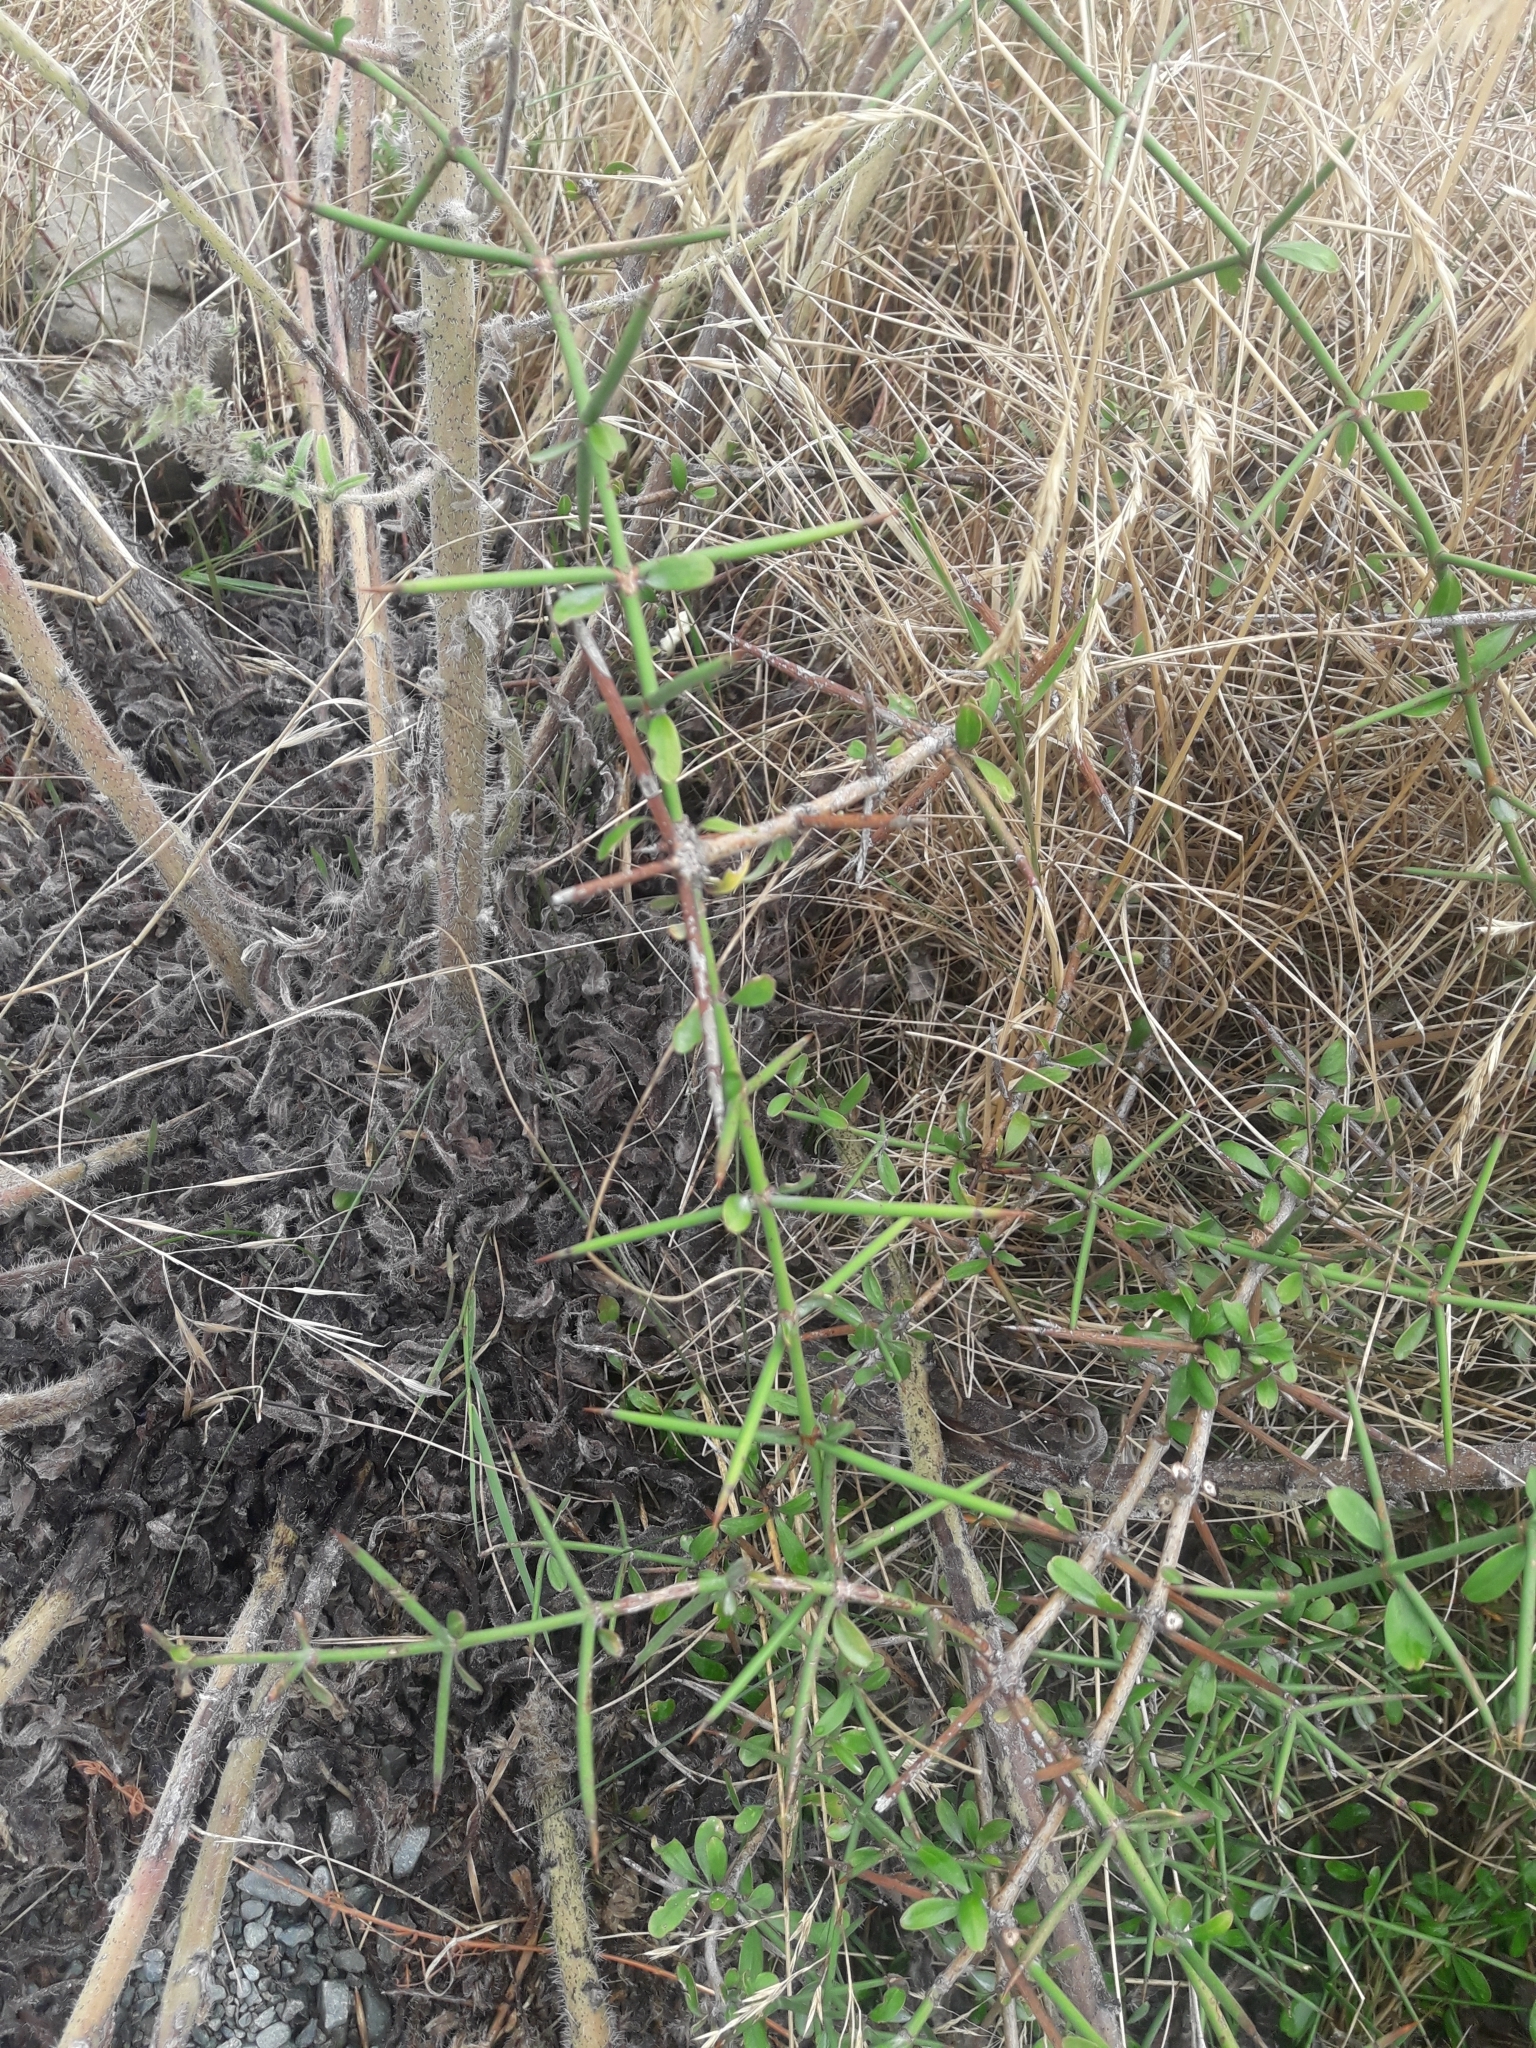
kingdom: Plantae
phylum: Tracheophyta
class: Magnoliopsida
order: Rosales
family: Rhamnaceae
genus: Discaria
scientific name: Discaria toumatou
